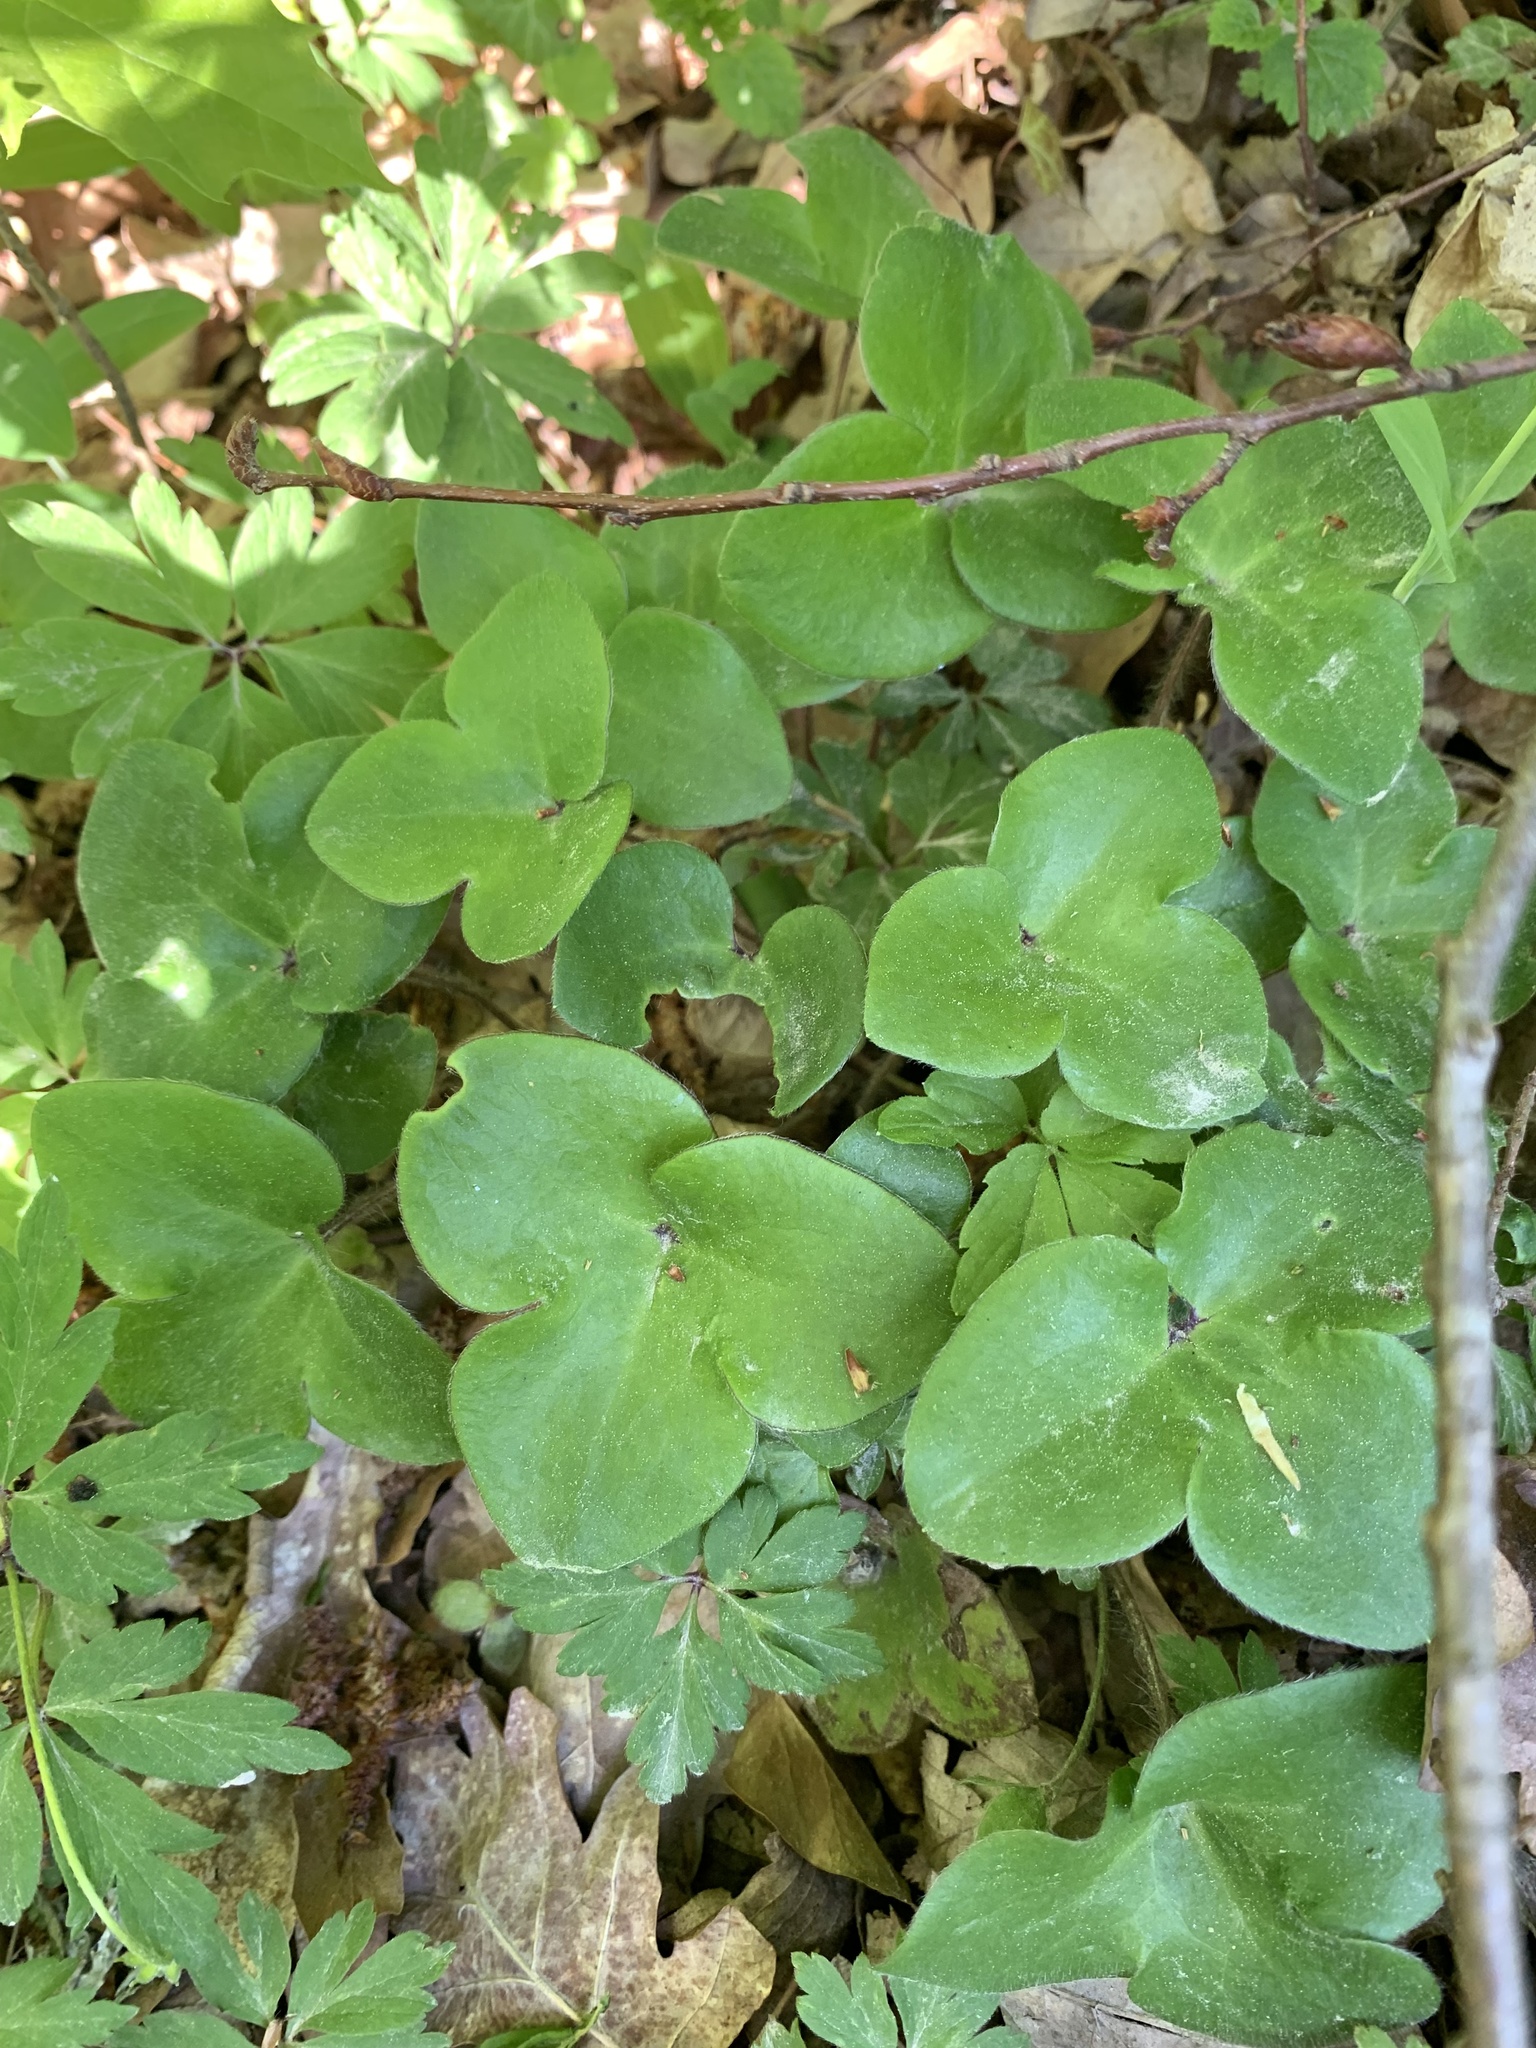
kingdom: Plantae
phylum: Tracheophyta
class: Magnoliopsida
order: Ranunculales
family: Ranunculaceae
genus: Hepatica
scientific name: Hepatica nobilis
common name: Liverleaf
